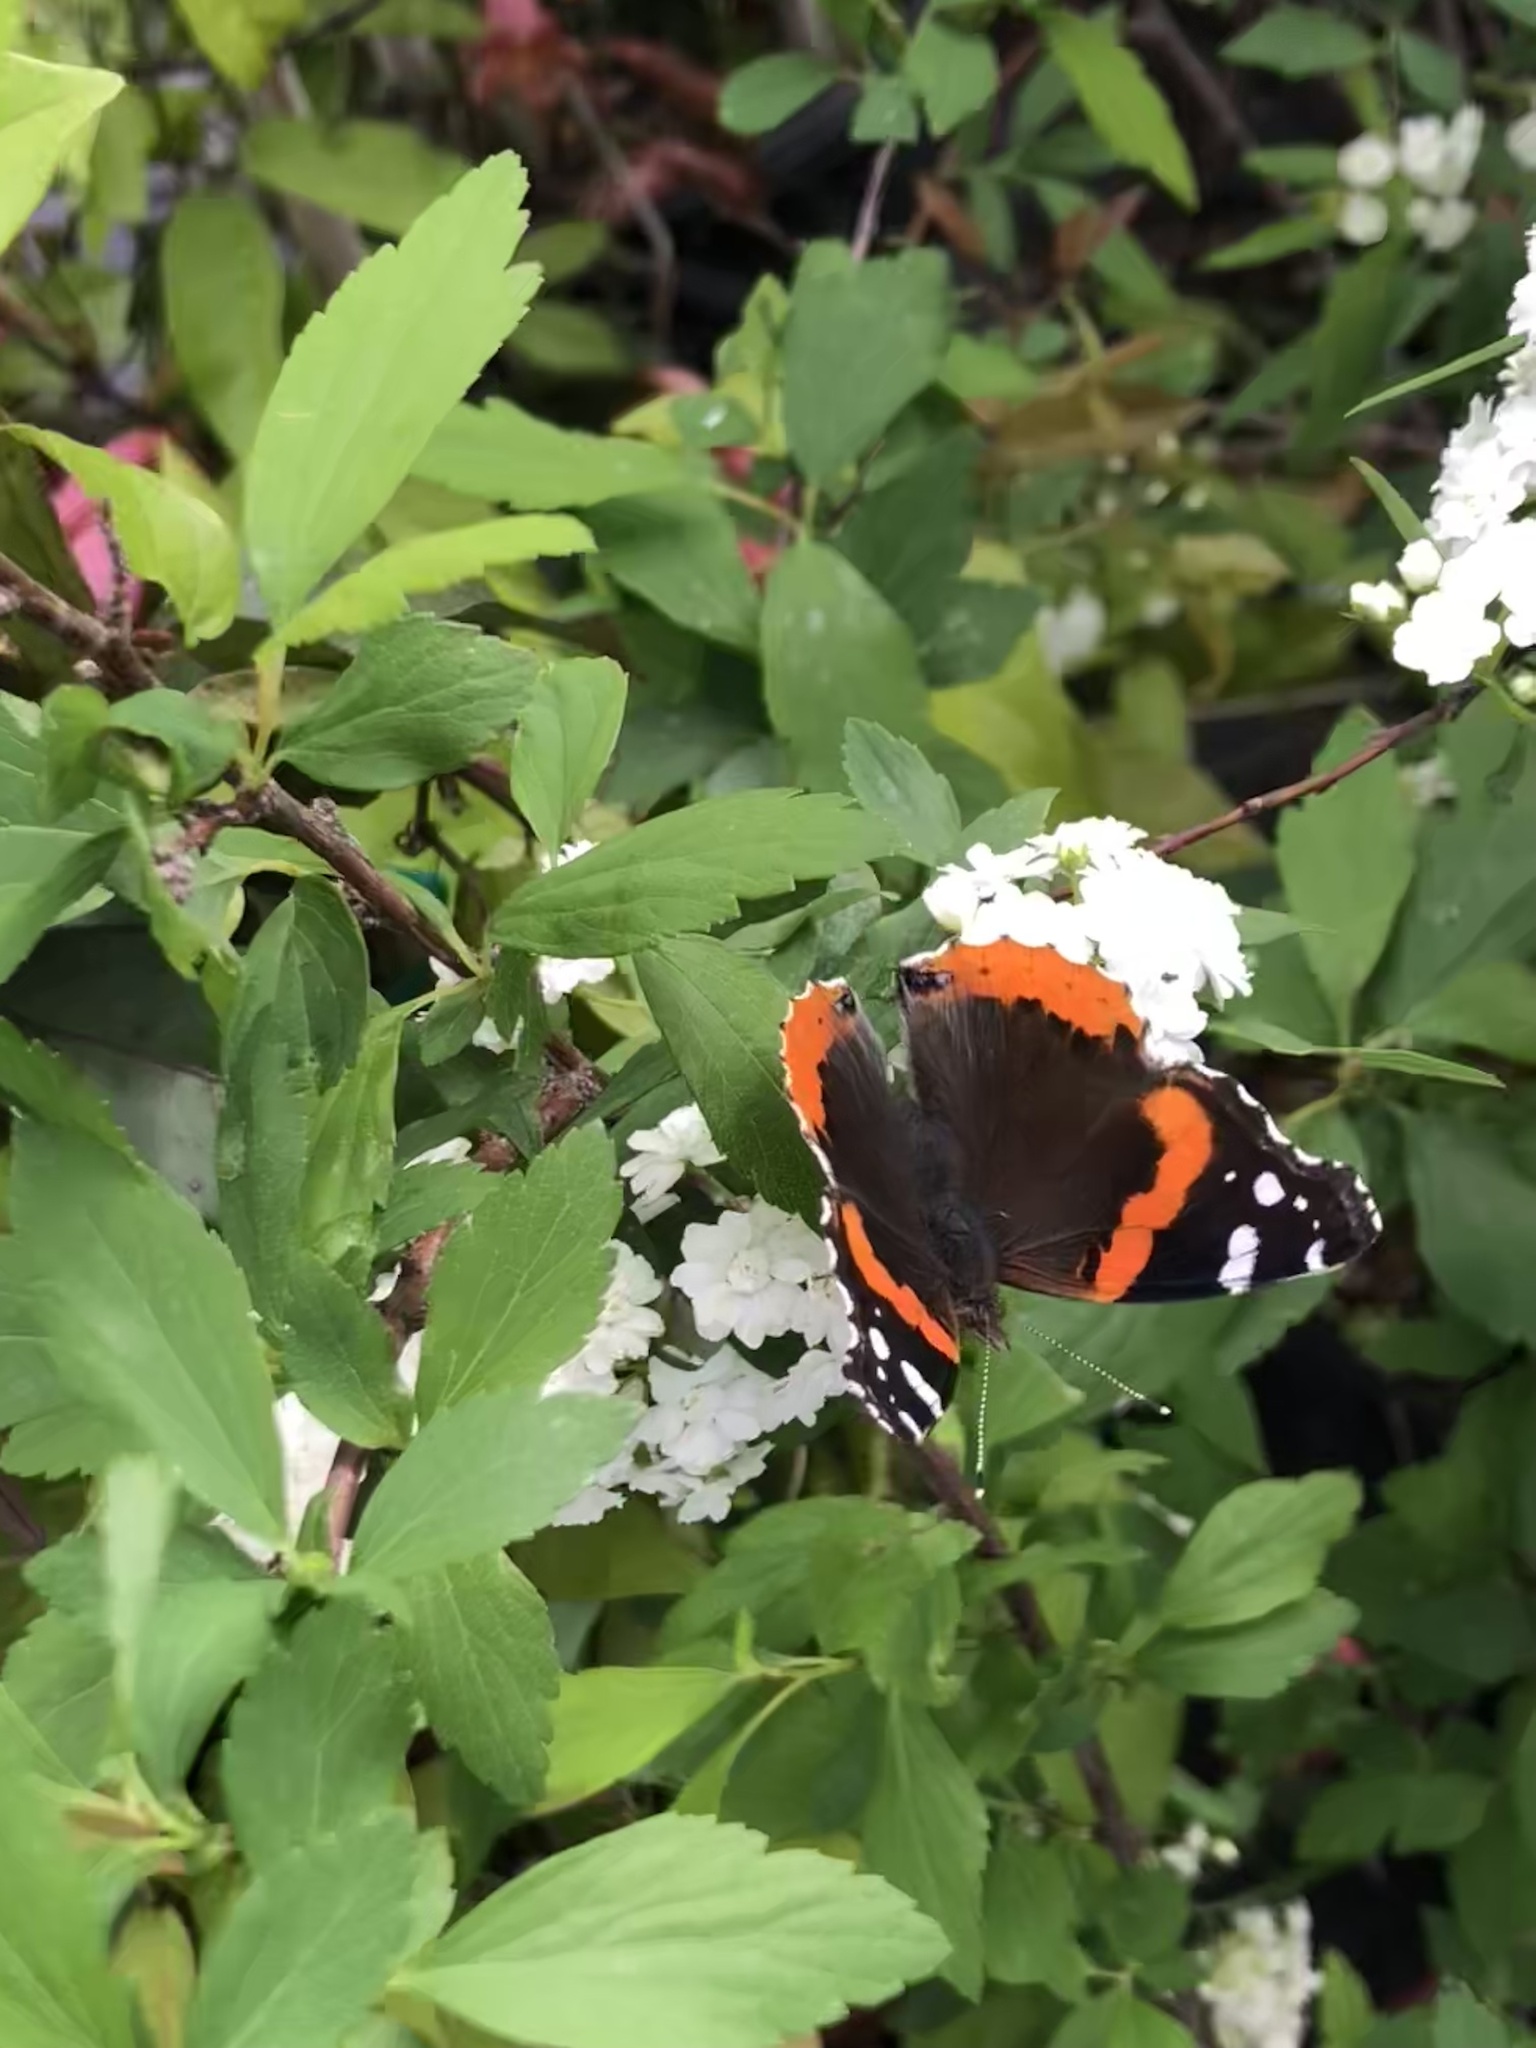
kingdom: Animalia
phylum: Arthropoda
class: Insecta
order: Lepidoptera
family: Nymphalidae
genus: Vanessa
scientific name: Vanessa atalanta
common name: Red admiral
